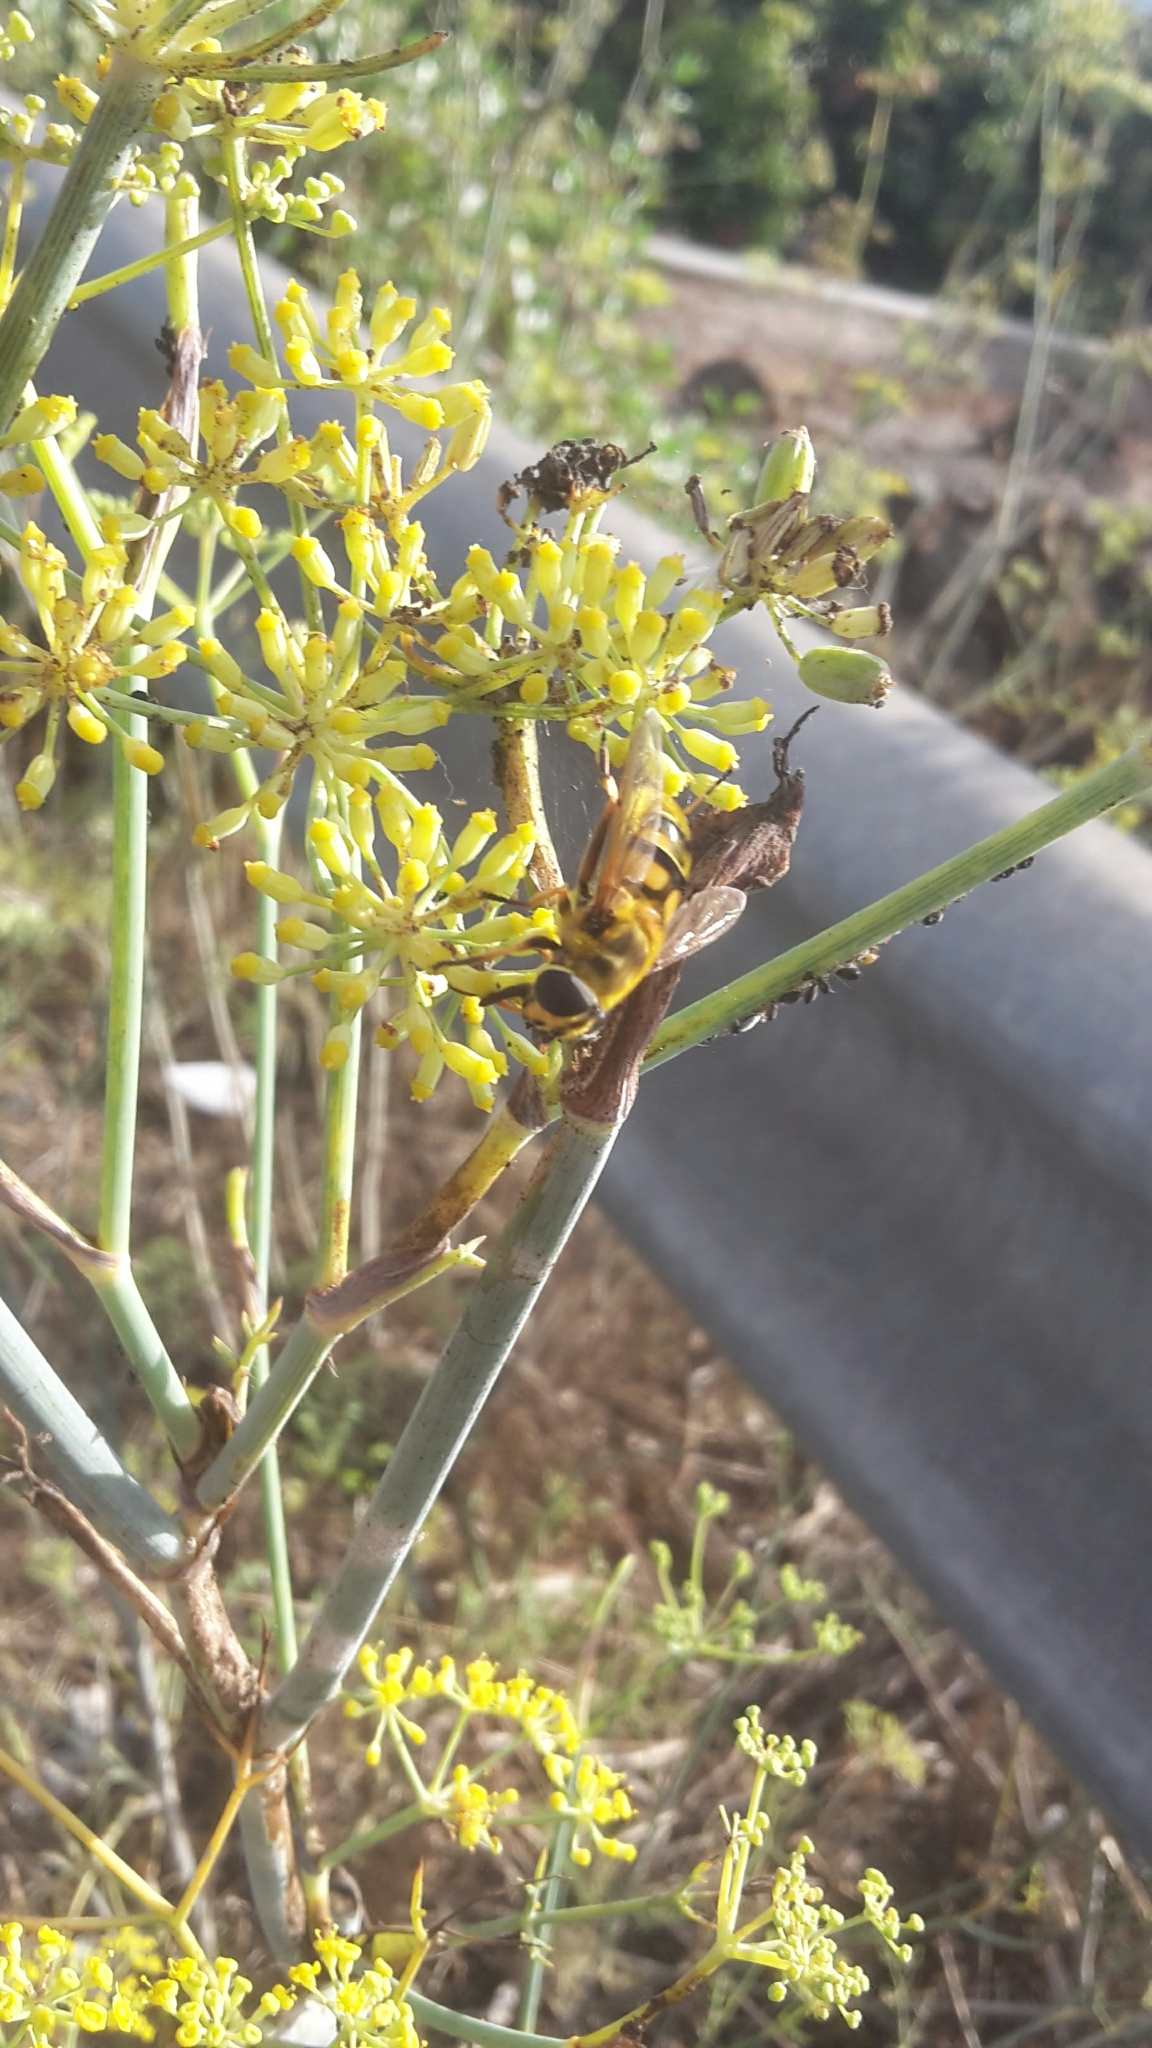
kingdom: Animalia
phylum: Arthropoda
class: Insecta
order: Diptera
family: Syrphidae
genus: Myathropa
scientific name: Myathropa florea
